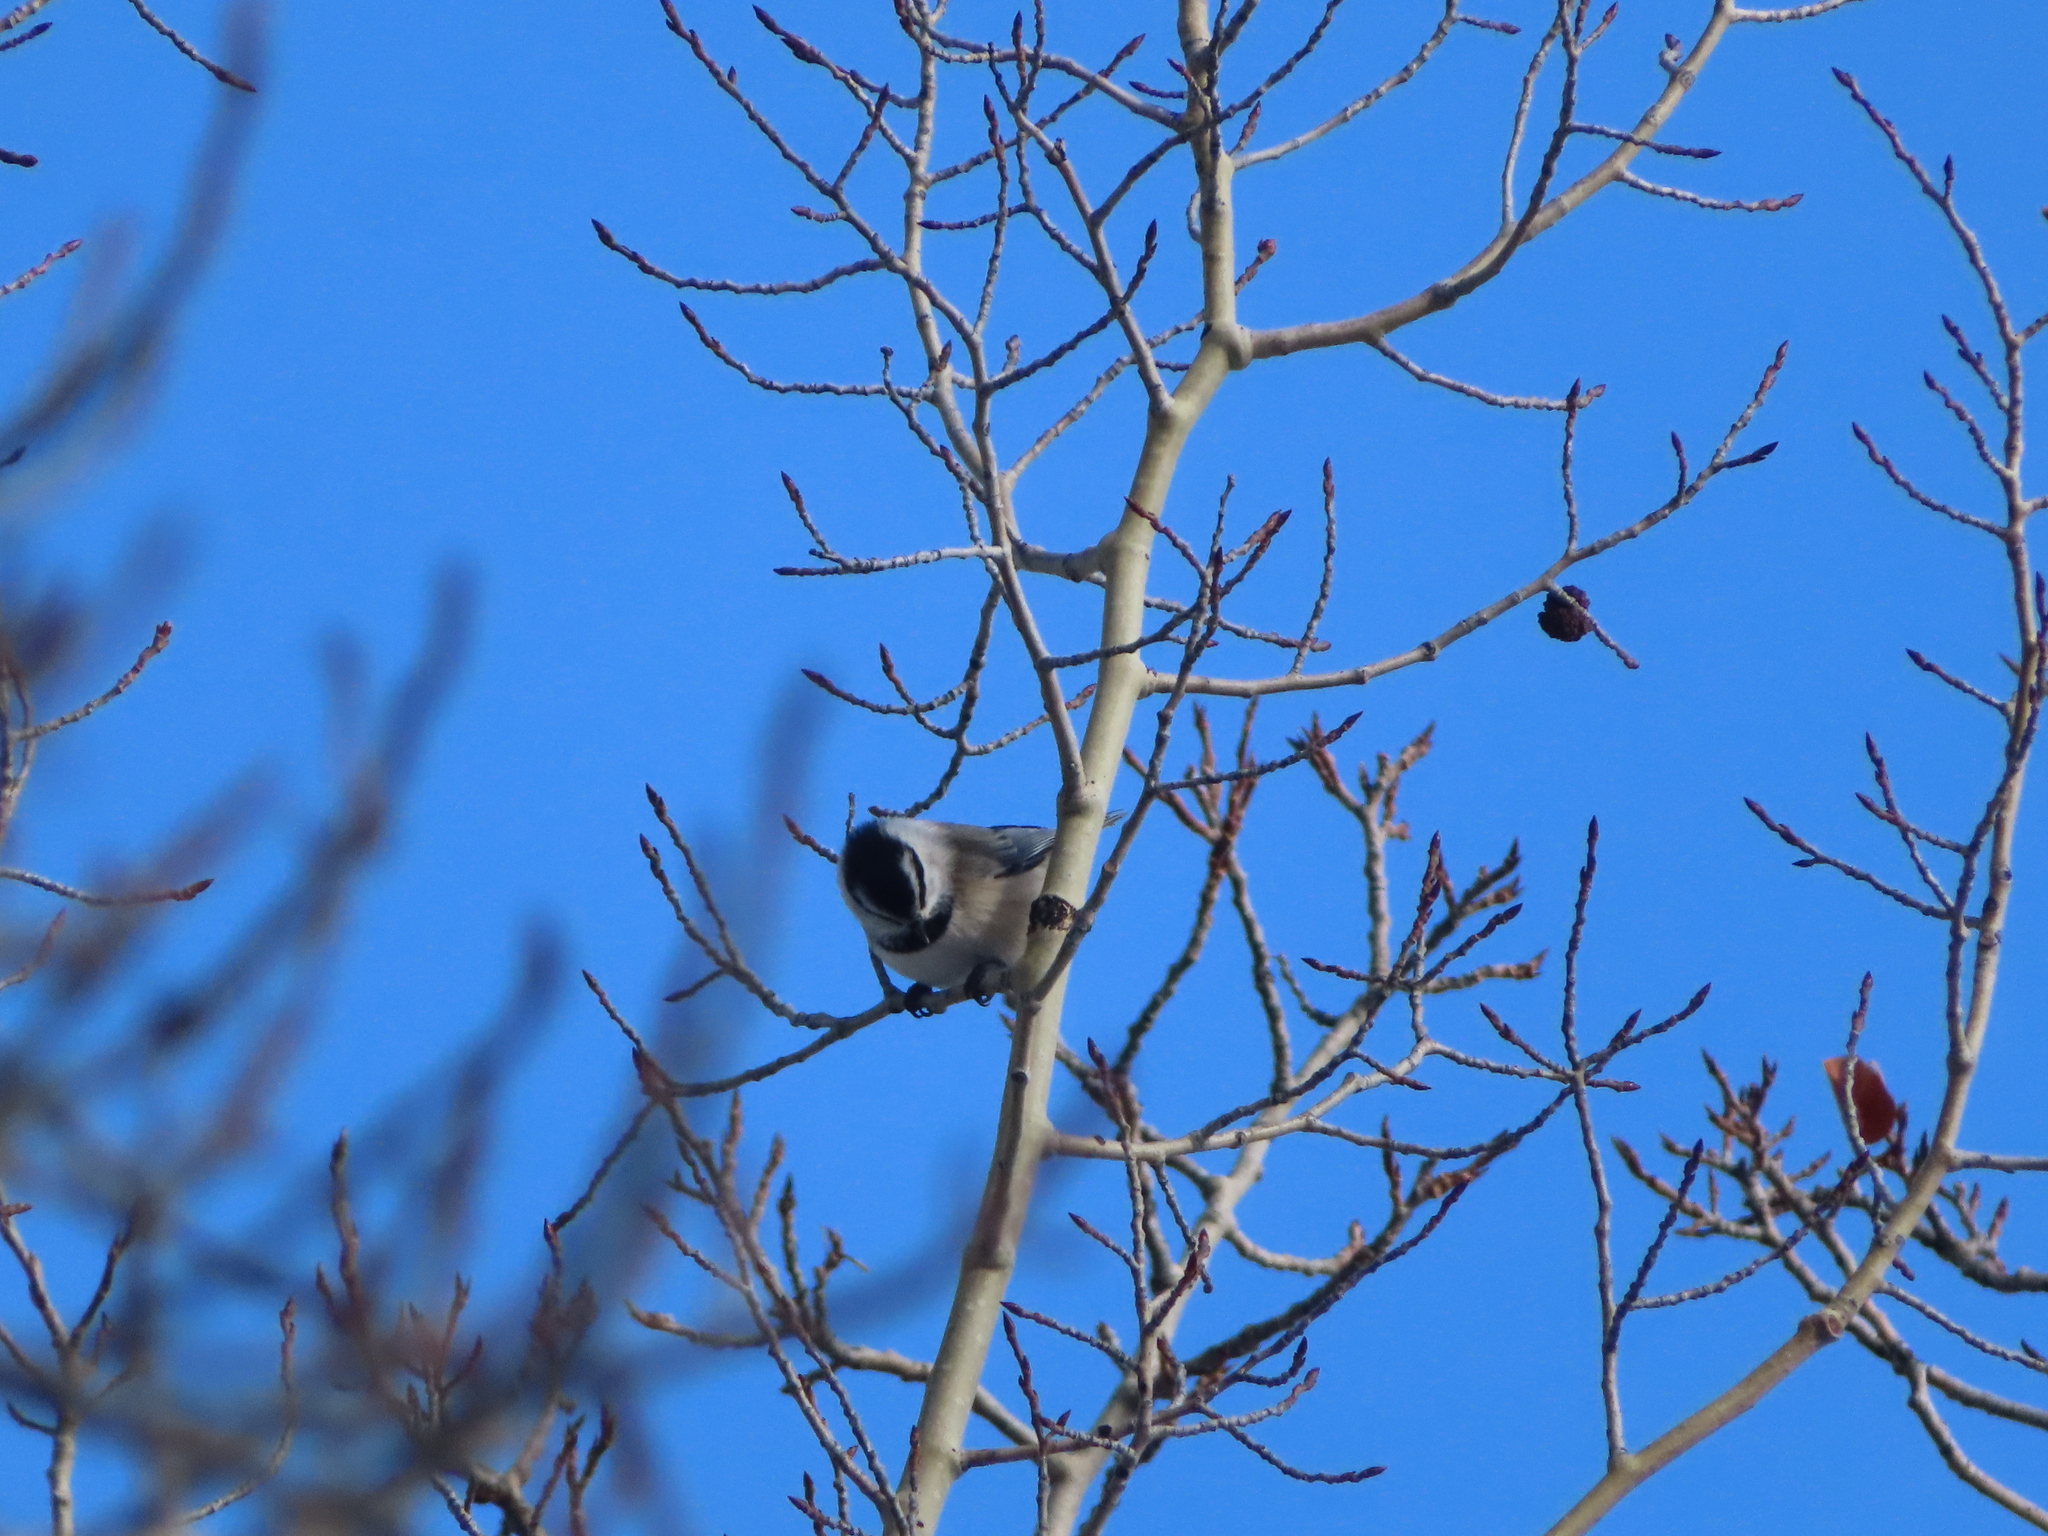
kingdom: Animalia
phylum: Chordata
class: Aves
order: Passeriformes
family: Paridae
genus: Poecile
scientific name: Poecile gambeli
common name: Mountain chickadee
